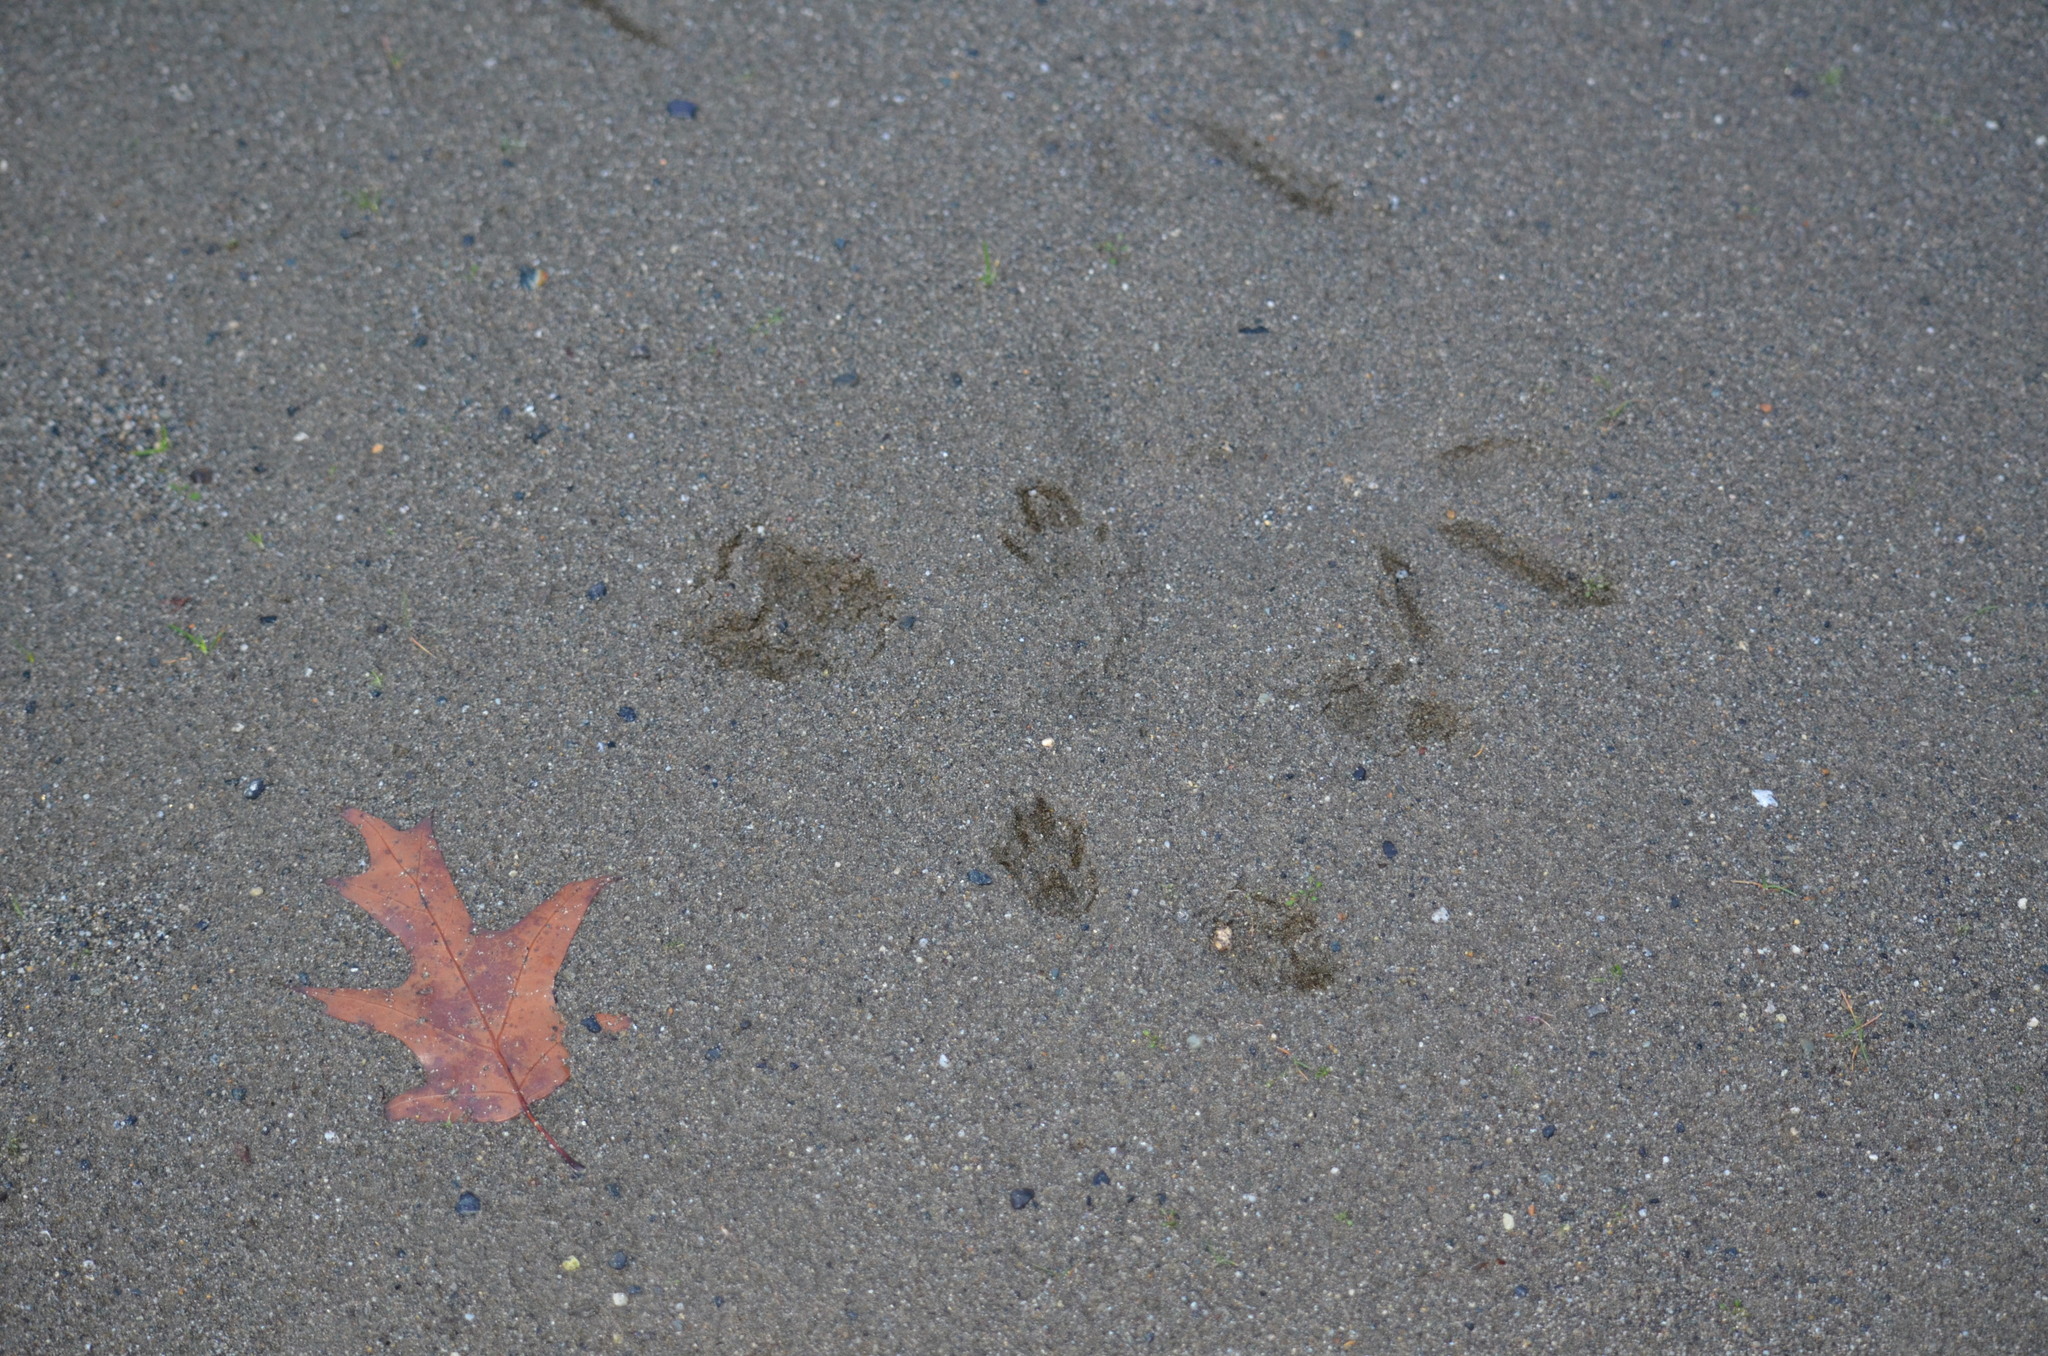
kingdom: Animalia
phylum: Chordata
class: Mammalia
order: Rodentia
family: Sciuridae
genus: Sciurus
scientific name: Sciurus carolinensis
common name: Eastern gray squirrel
